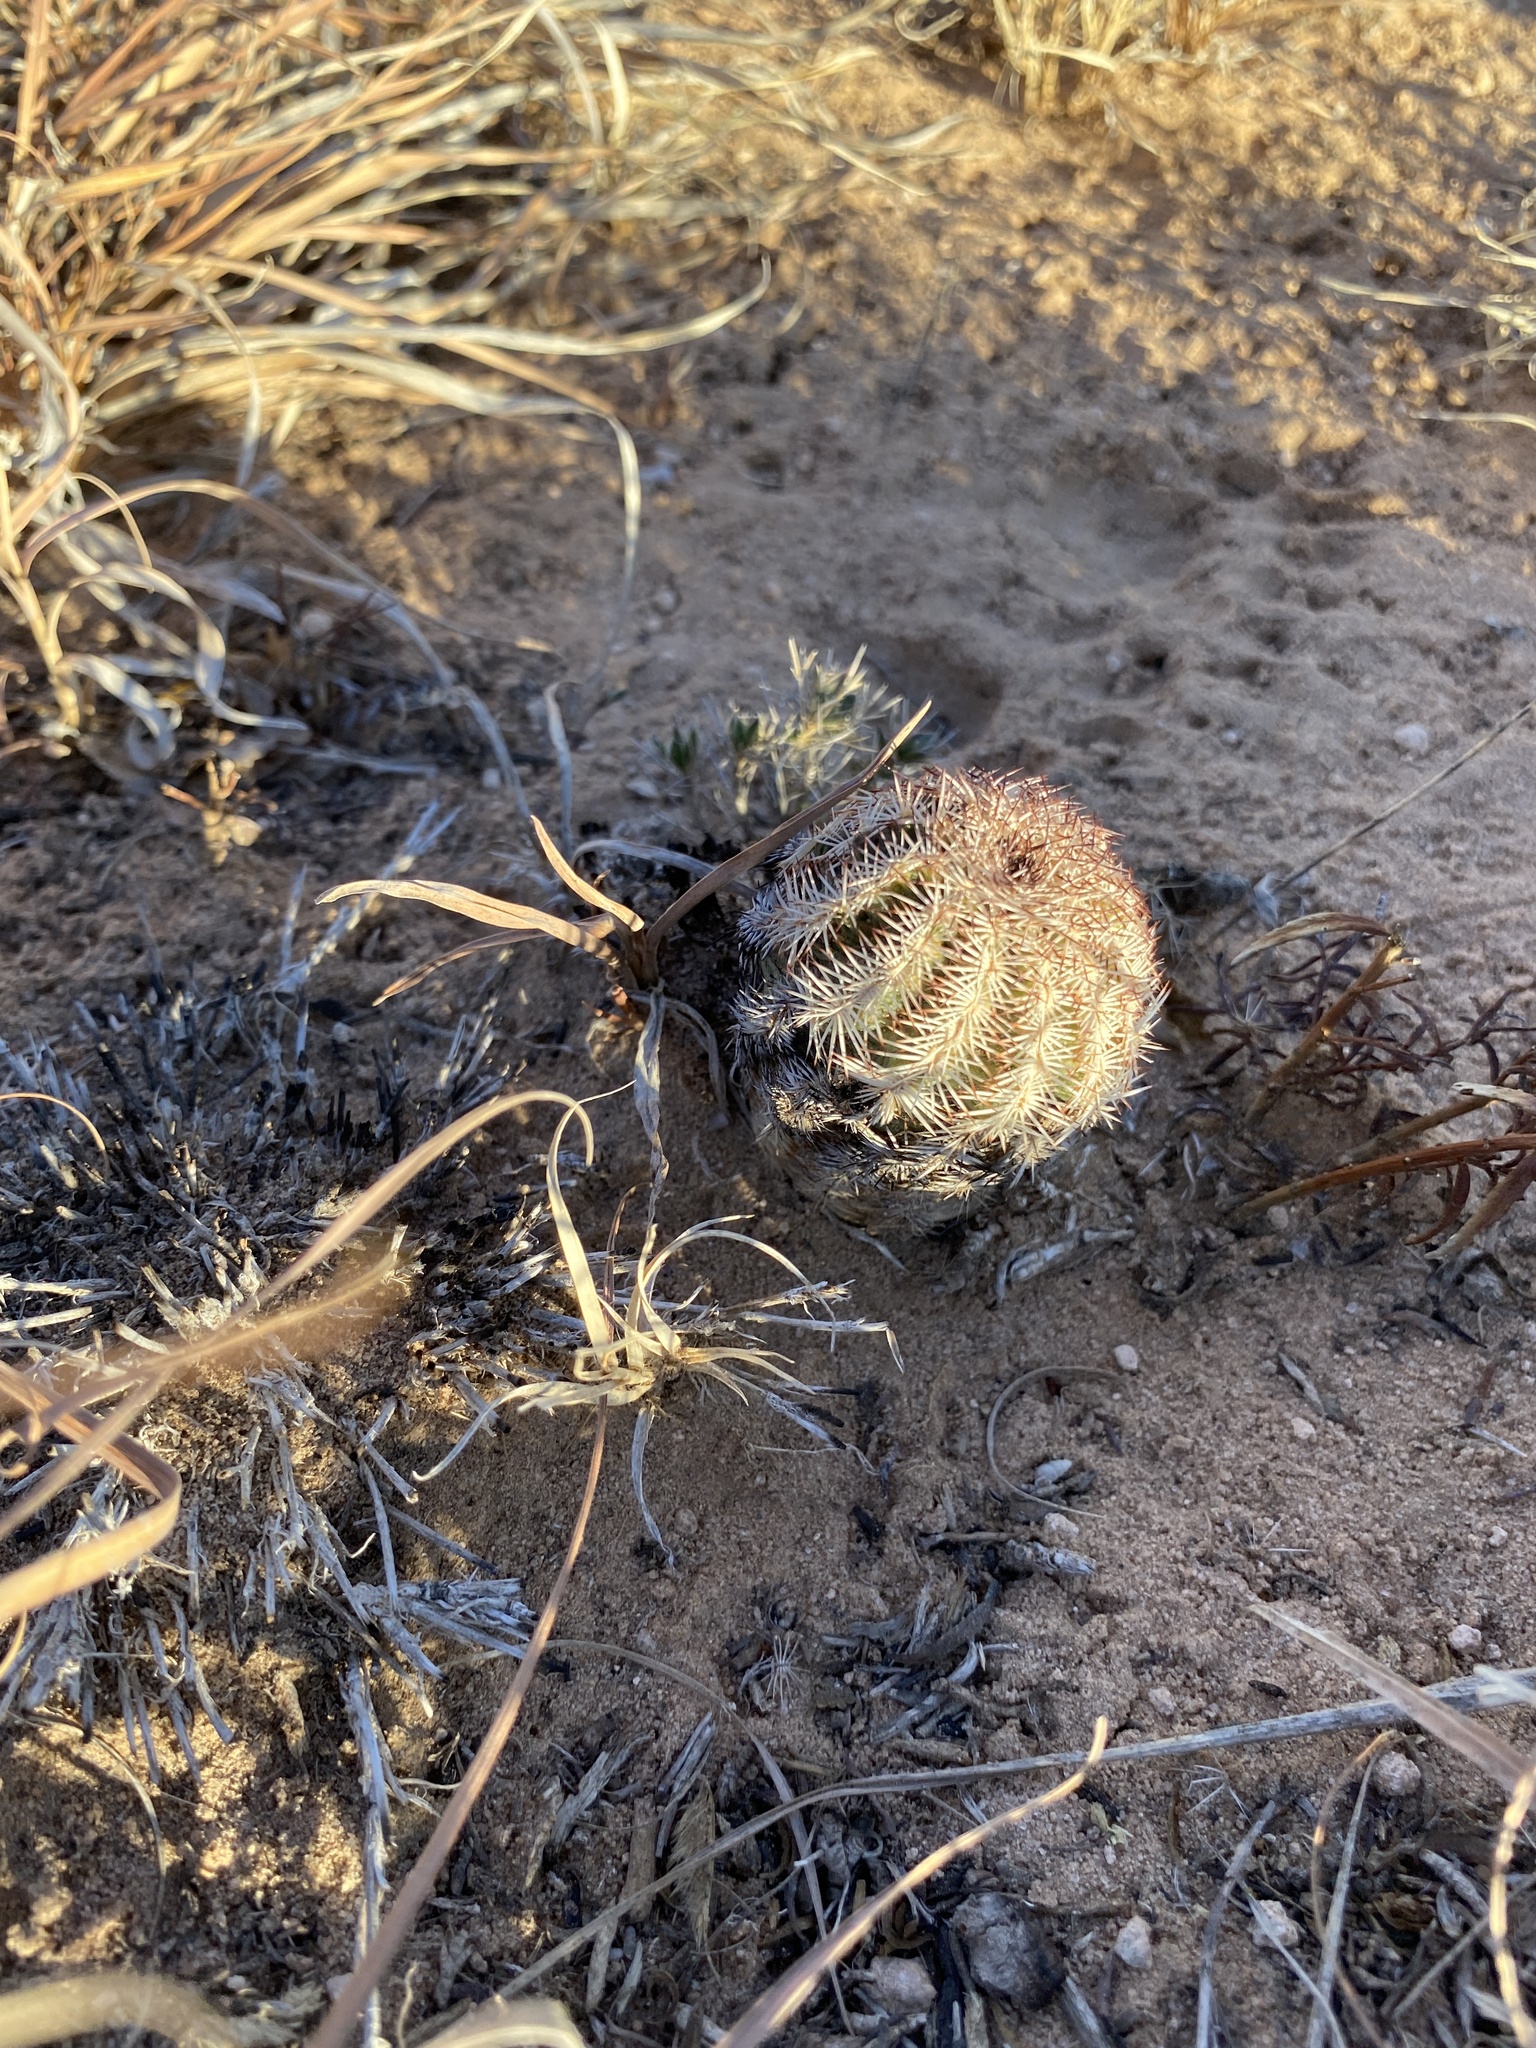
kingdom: Plantae
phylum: Tracheophyta
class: Magnoliopsida
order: Caryophyllales
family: Cactaceae
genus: Echinocereus
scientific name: Echinocereus reichenbachii
